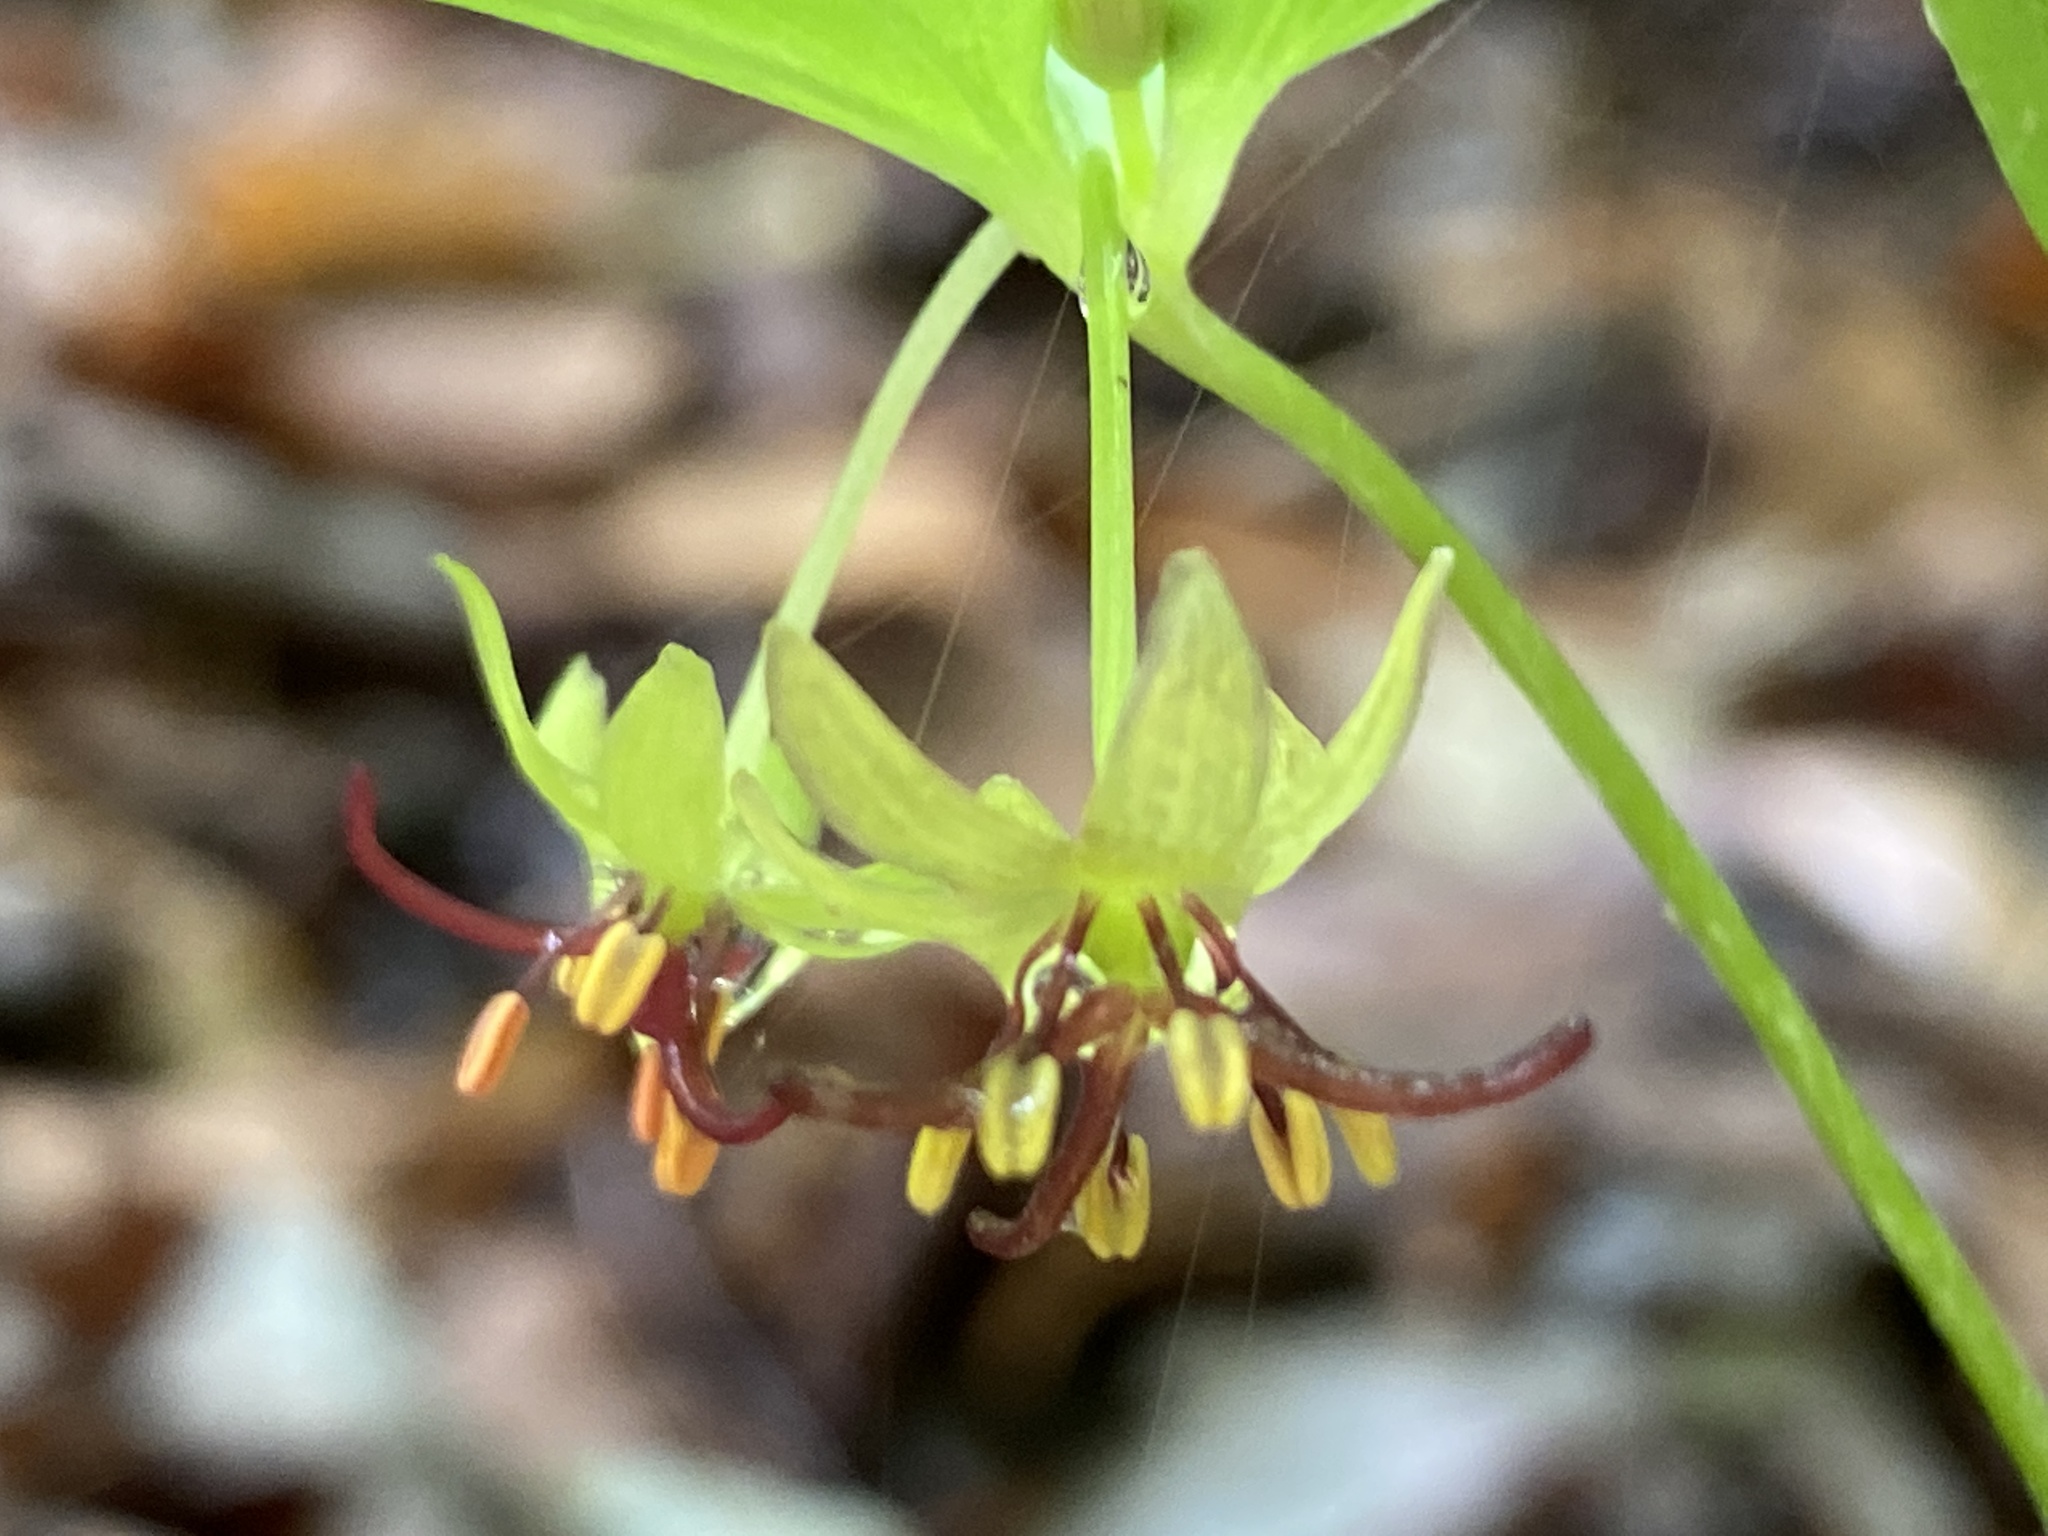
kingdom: Plantae
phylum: Tracheophyta
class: Liliopsida
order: Liliales
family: Liliaceae
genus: Medeola
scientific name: Medeola virginiana
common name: Indian cucumber-root
